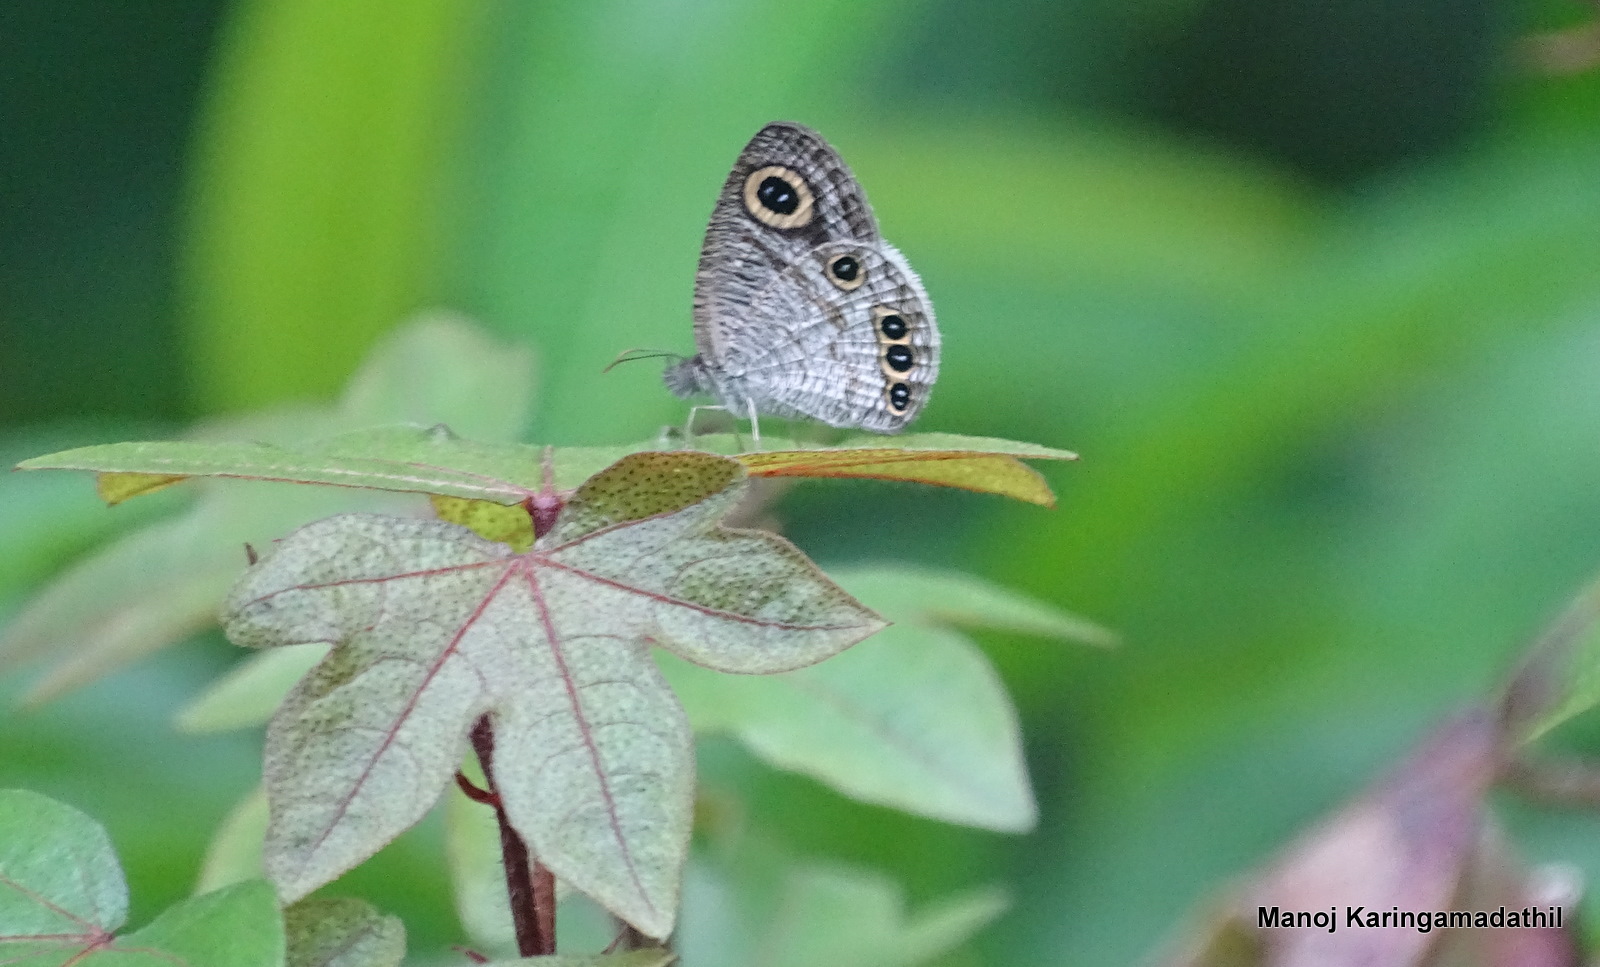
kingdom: Animalia
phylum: Arthropoda
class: Insecta
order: Lepidoptera
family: Nymphalidae
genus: Ypthima
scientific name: Ypthima huebneri
